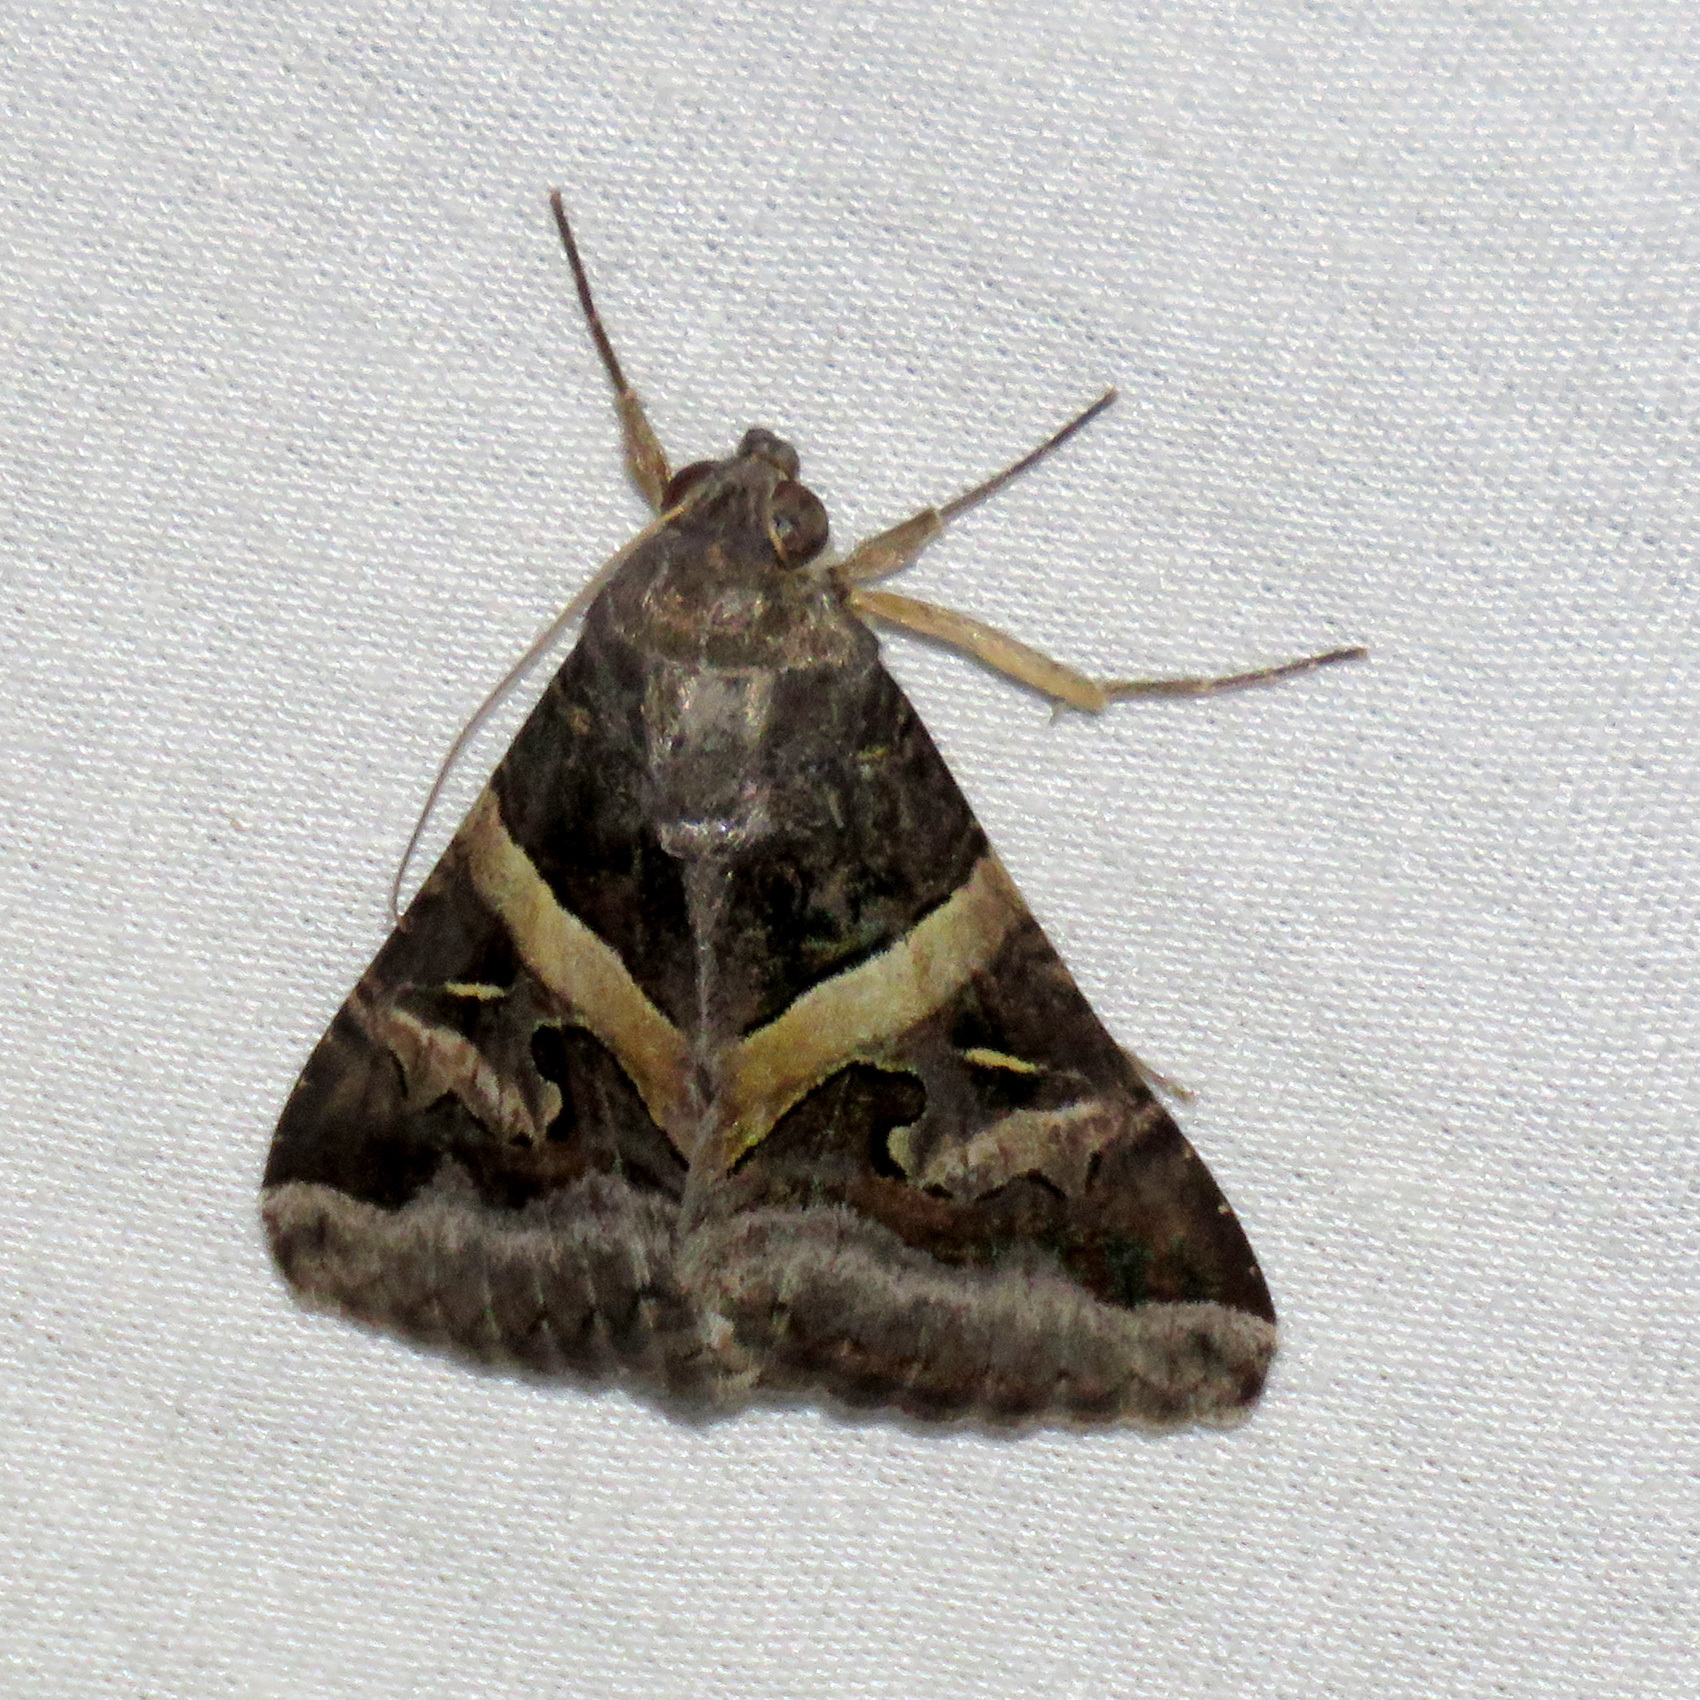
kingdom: Animalia
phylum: Arthropoda
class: Insecta
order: Lepidoptera
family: Erebidae
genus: Melipotis
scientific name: Melipotis indomita
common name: Moth
